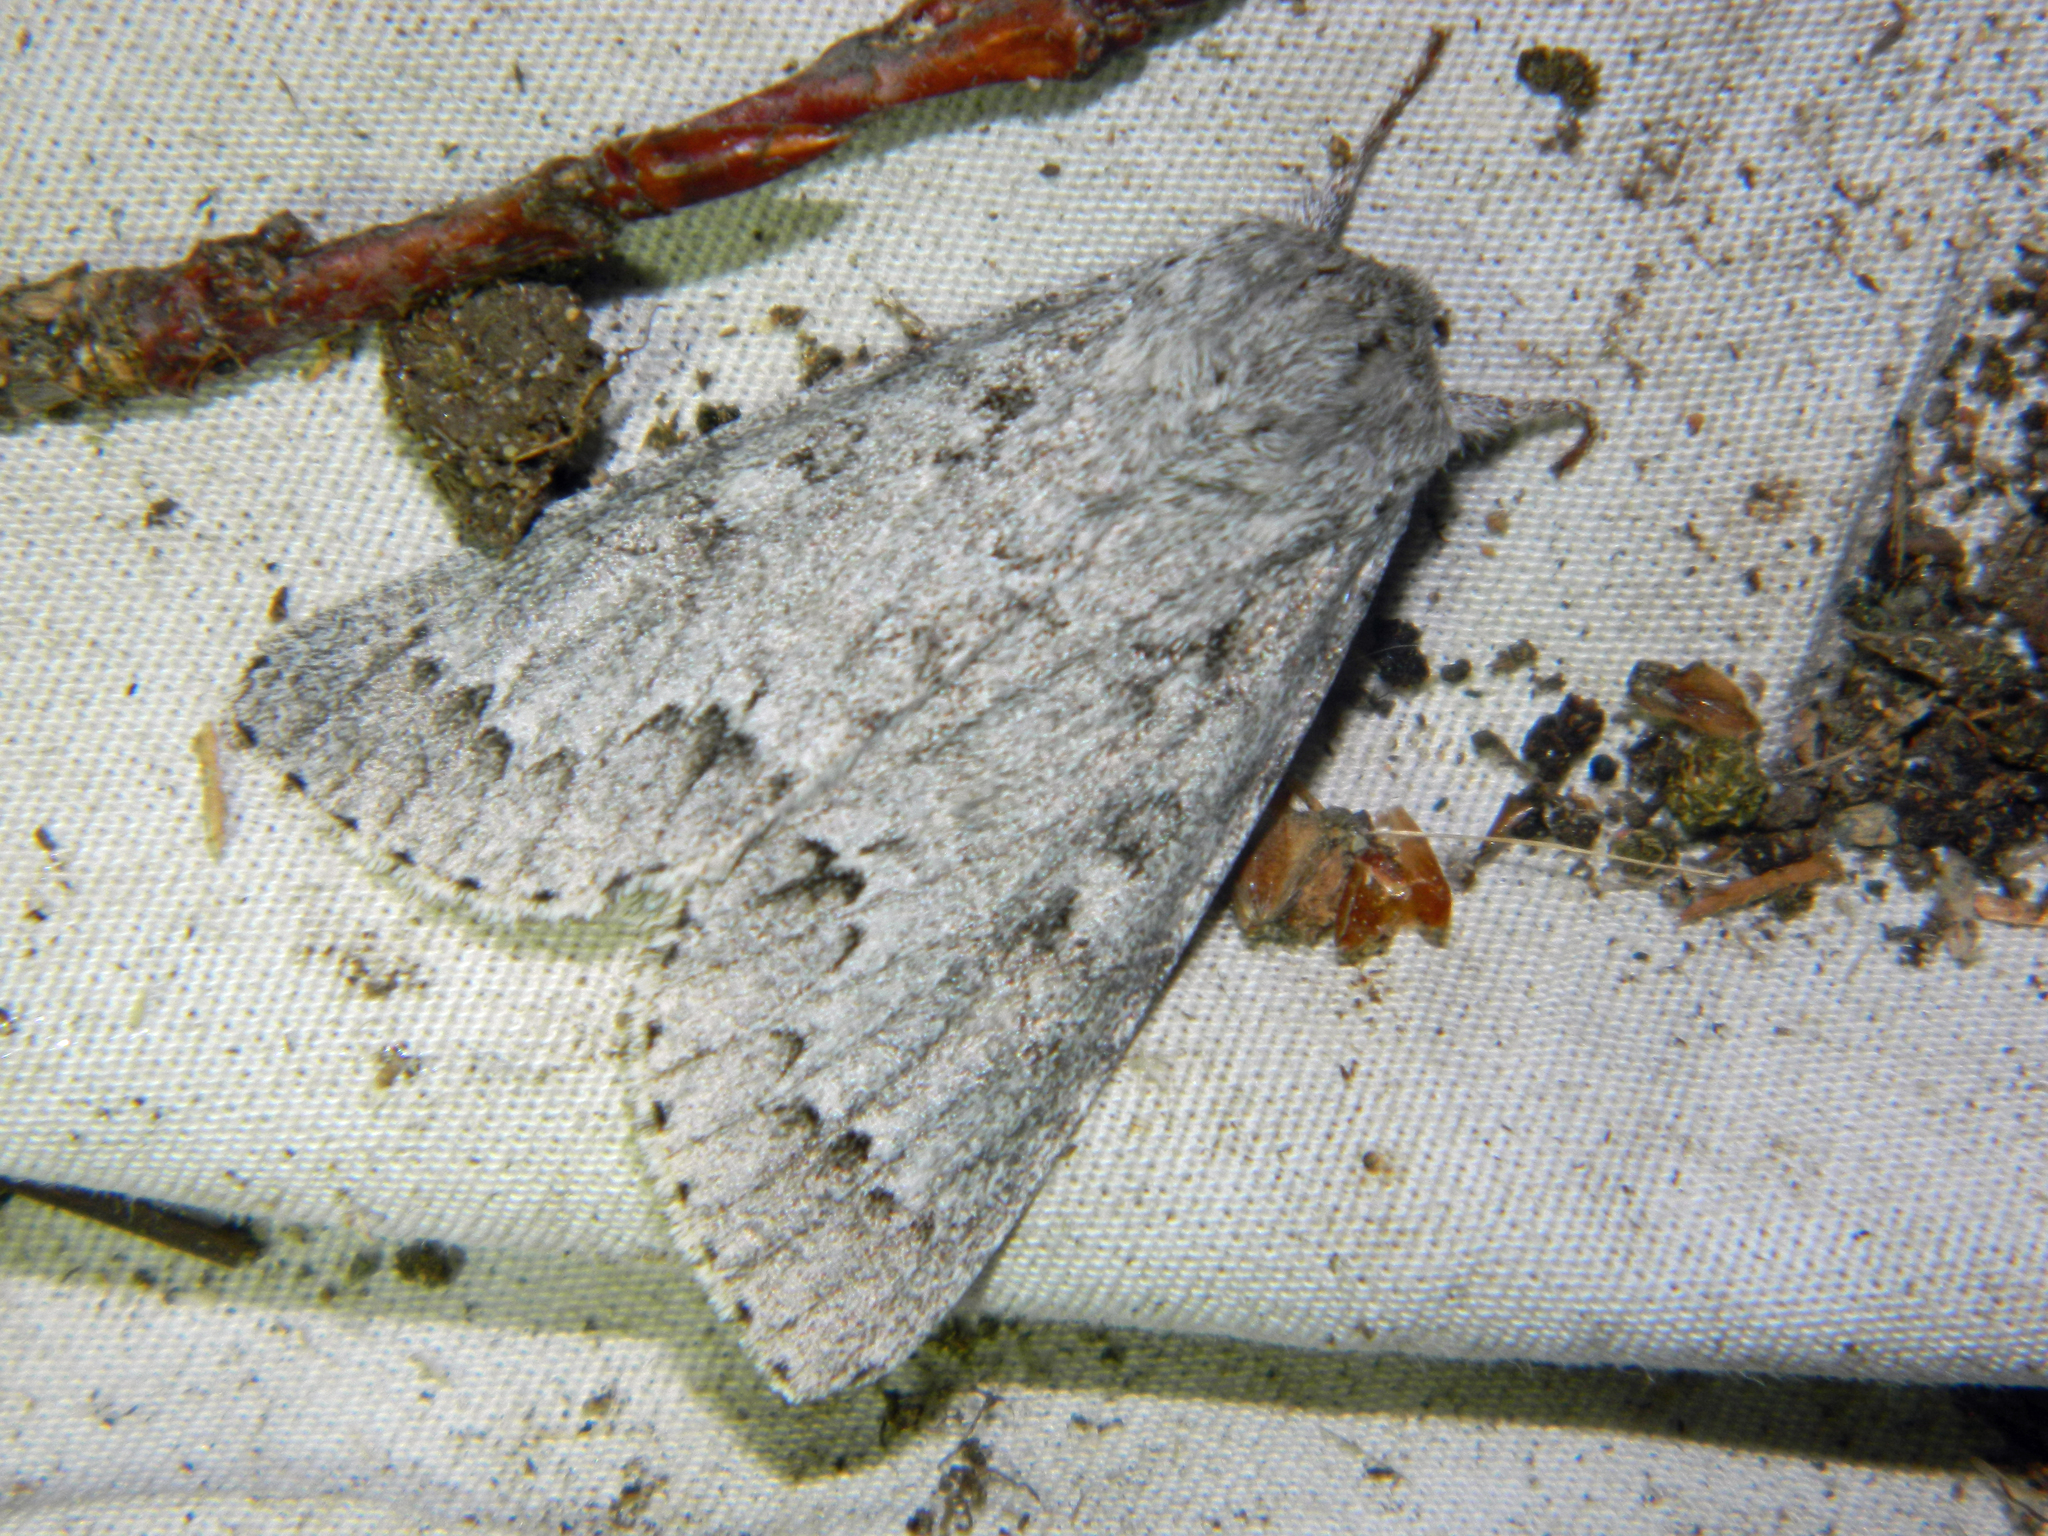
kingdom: Animalia
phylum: Arthropoda
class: Insecta
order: Lepidoptera
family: Noctuidae
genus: Acronicta
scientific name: Acronicta insita
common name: Large gray dagger
